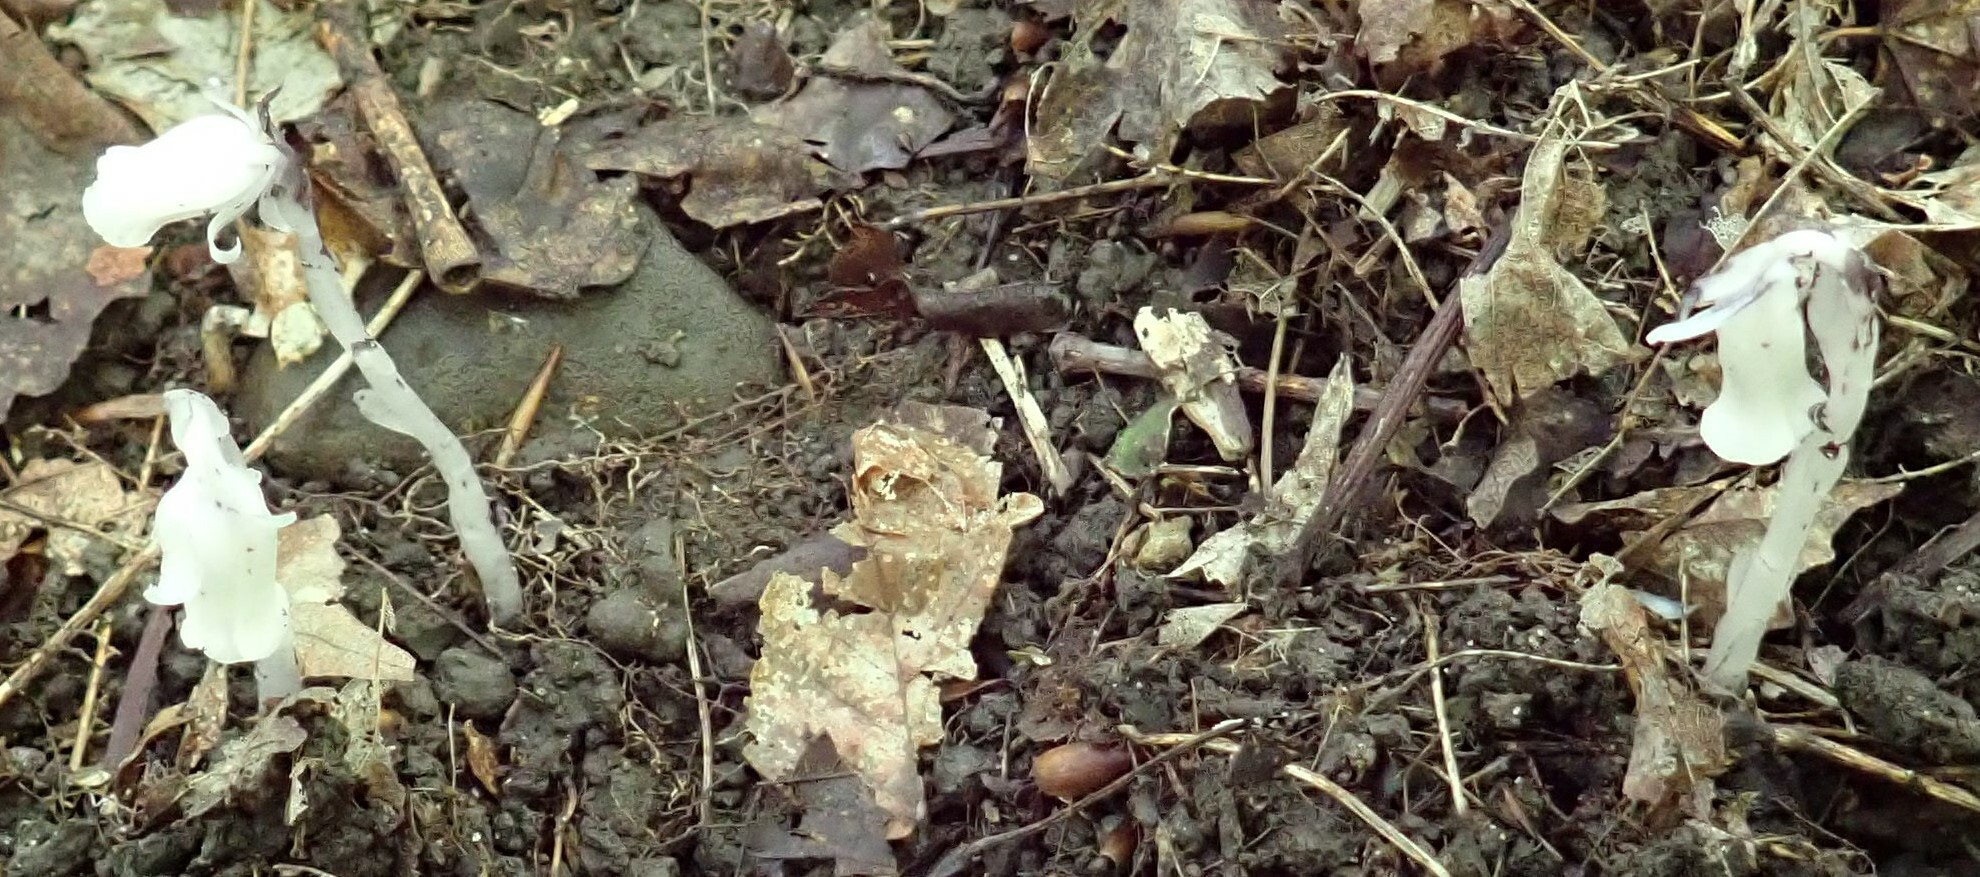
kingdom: Plantae
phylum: Tracheophyta
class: Magnoliopsida
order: Ericales
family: Ericaceae
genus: Monotropa
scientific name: Monotropa uniflora
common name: Convulsion root
